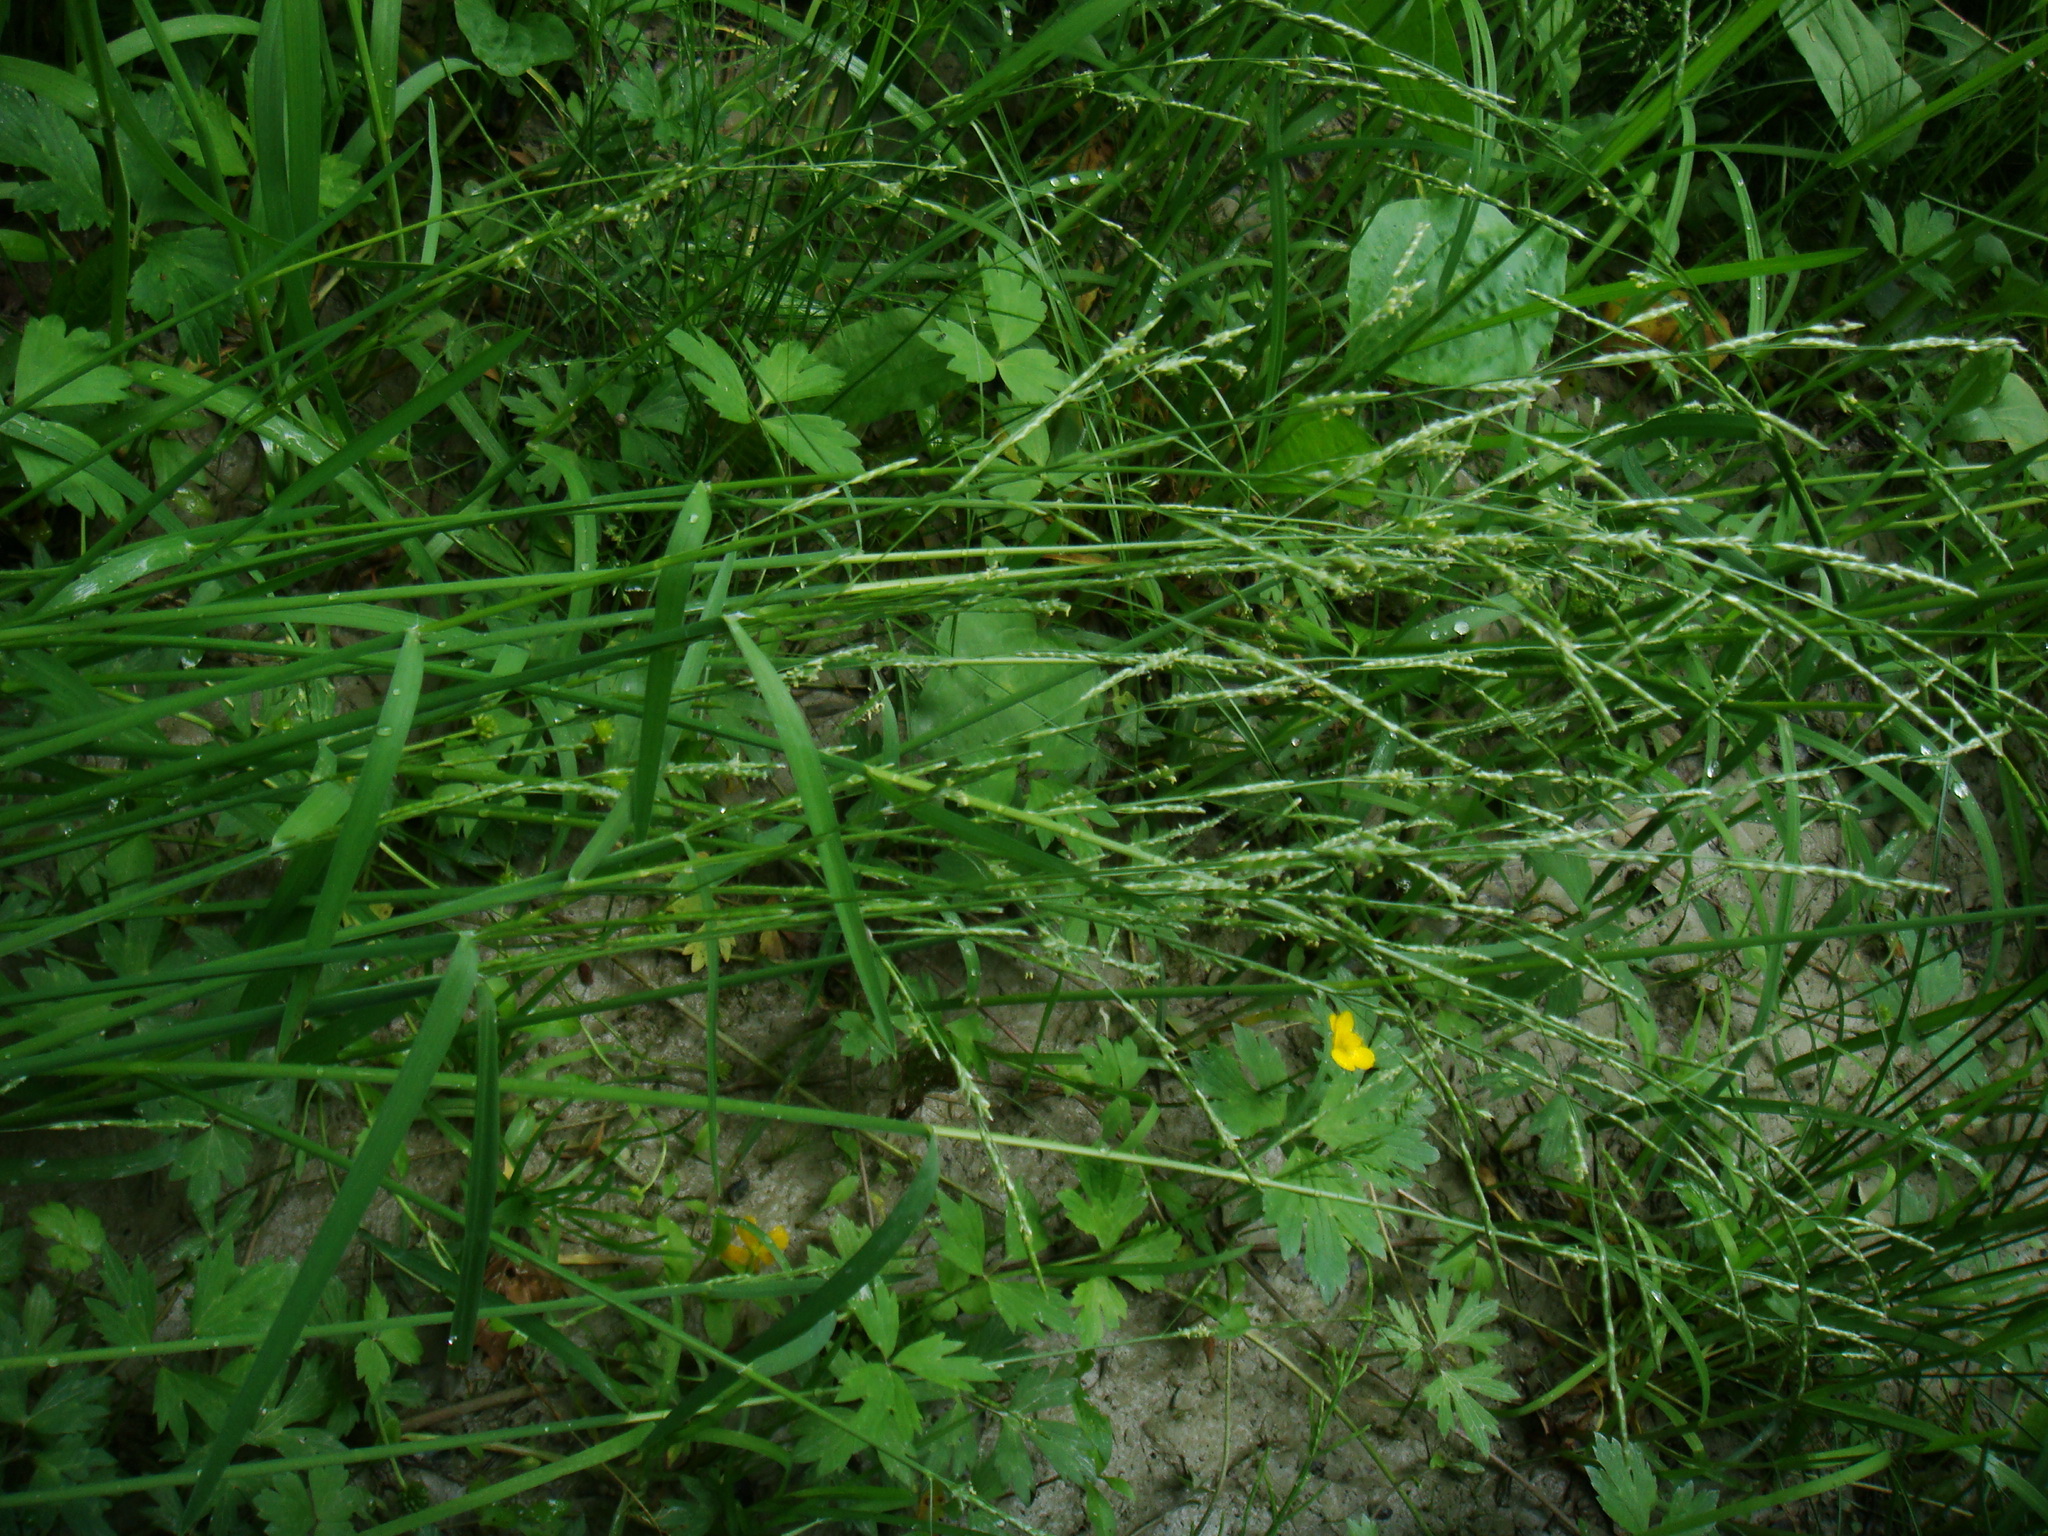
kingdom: Plantae
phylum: Tracheophyta
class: Liliopsida
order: Poales
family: Poaceae
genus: Glyceria
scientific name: Glyceria notata
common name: Plicate sweet-grass
